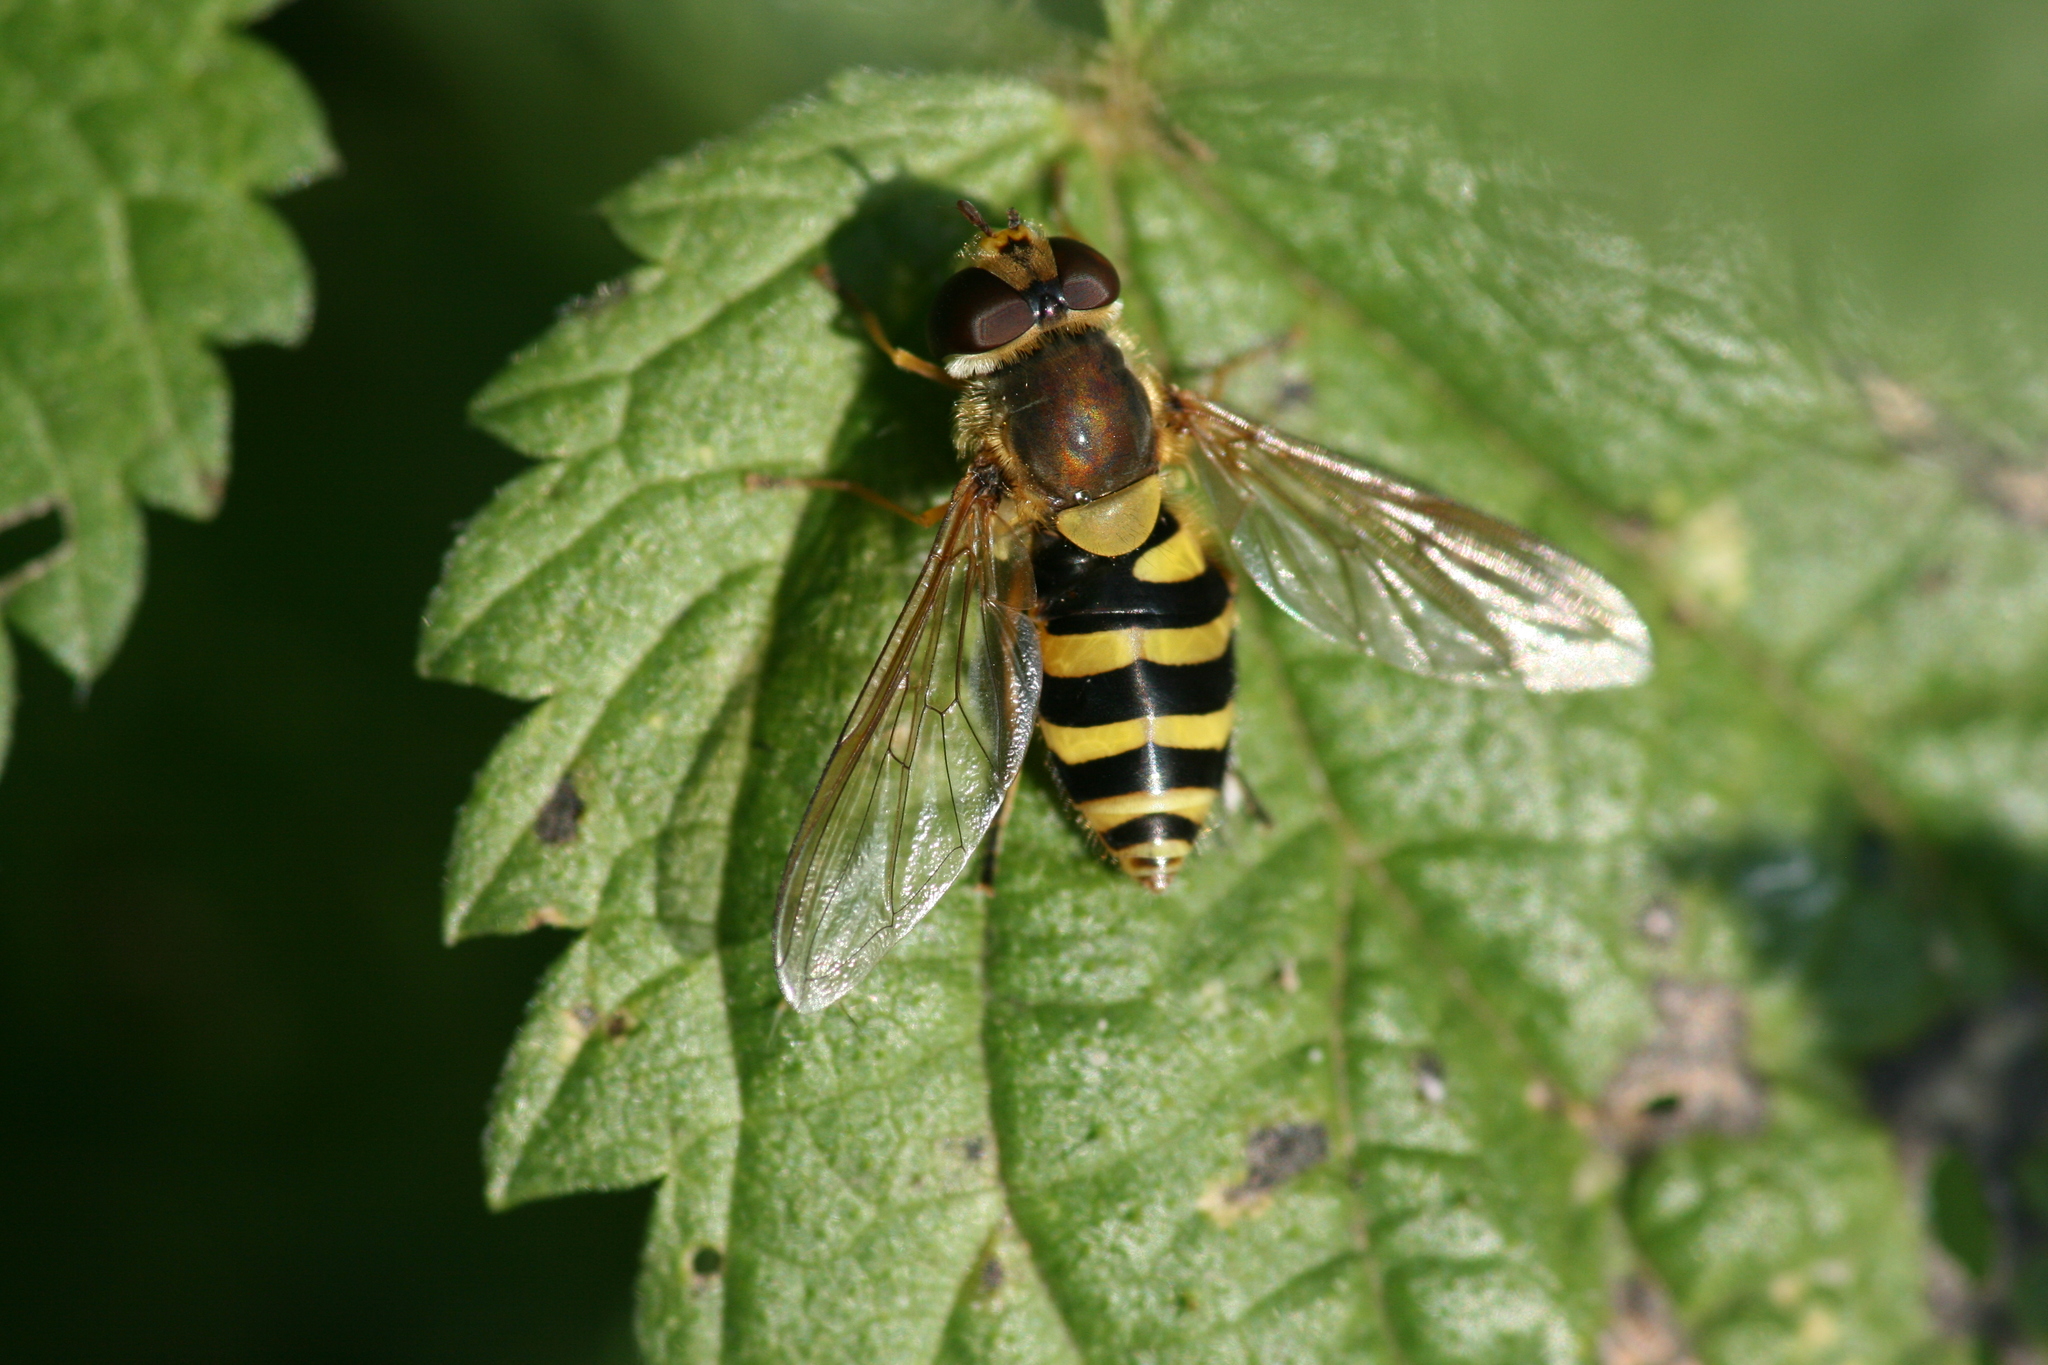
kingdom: Animalia
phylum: Arthropoda
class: Insecta
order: Diptera
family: Syrphidae
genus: Syrphus
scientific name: Syrphus
